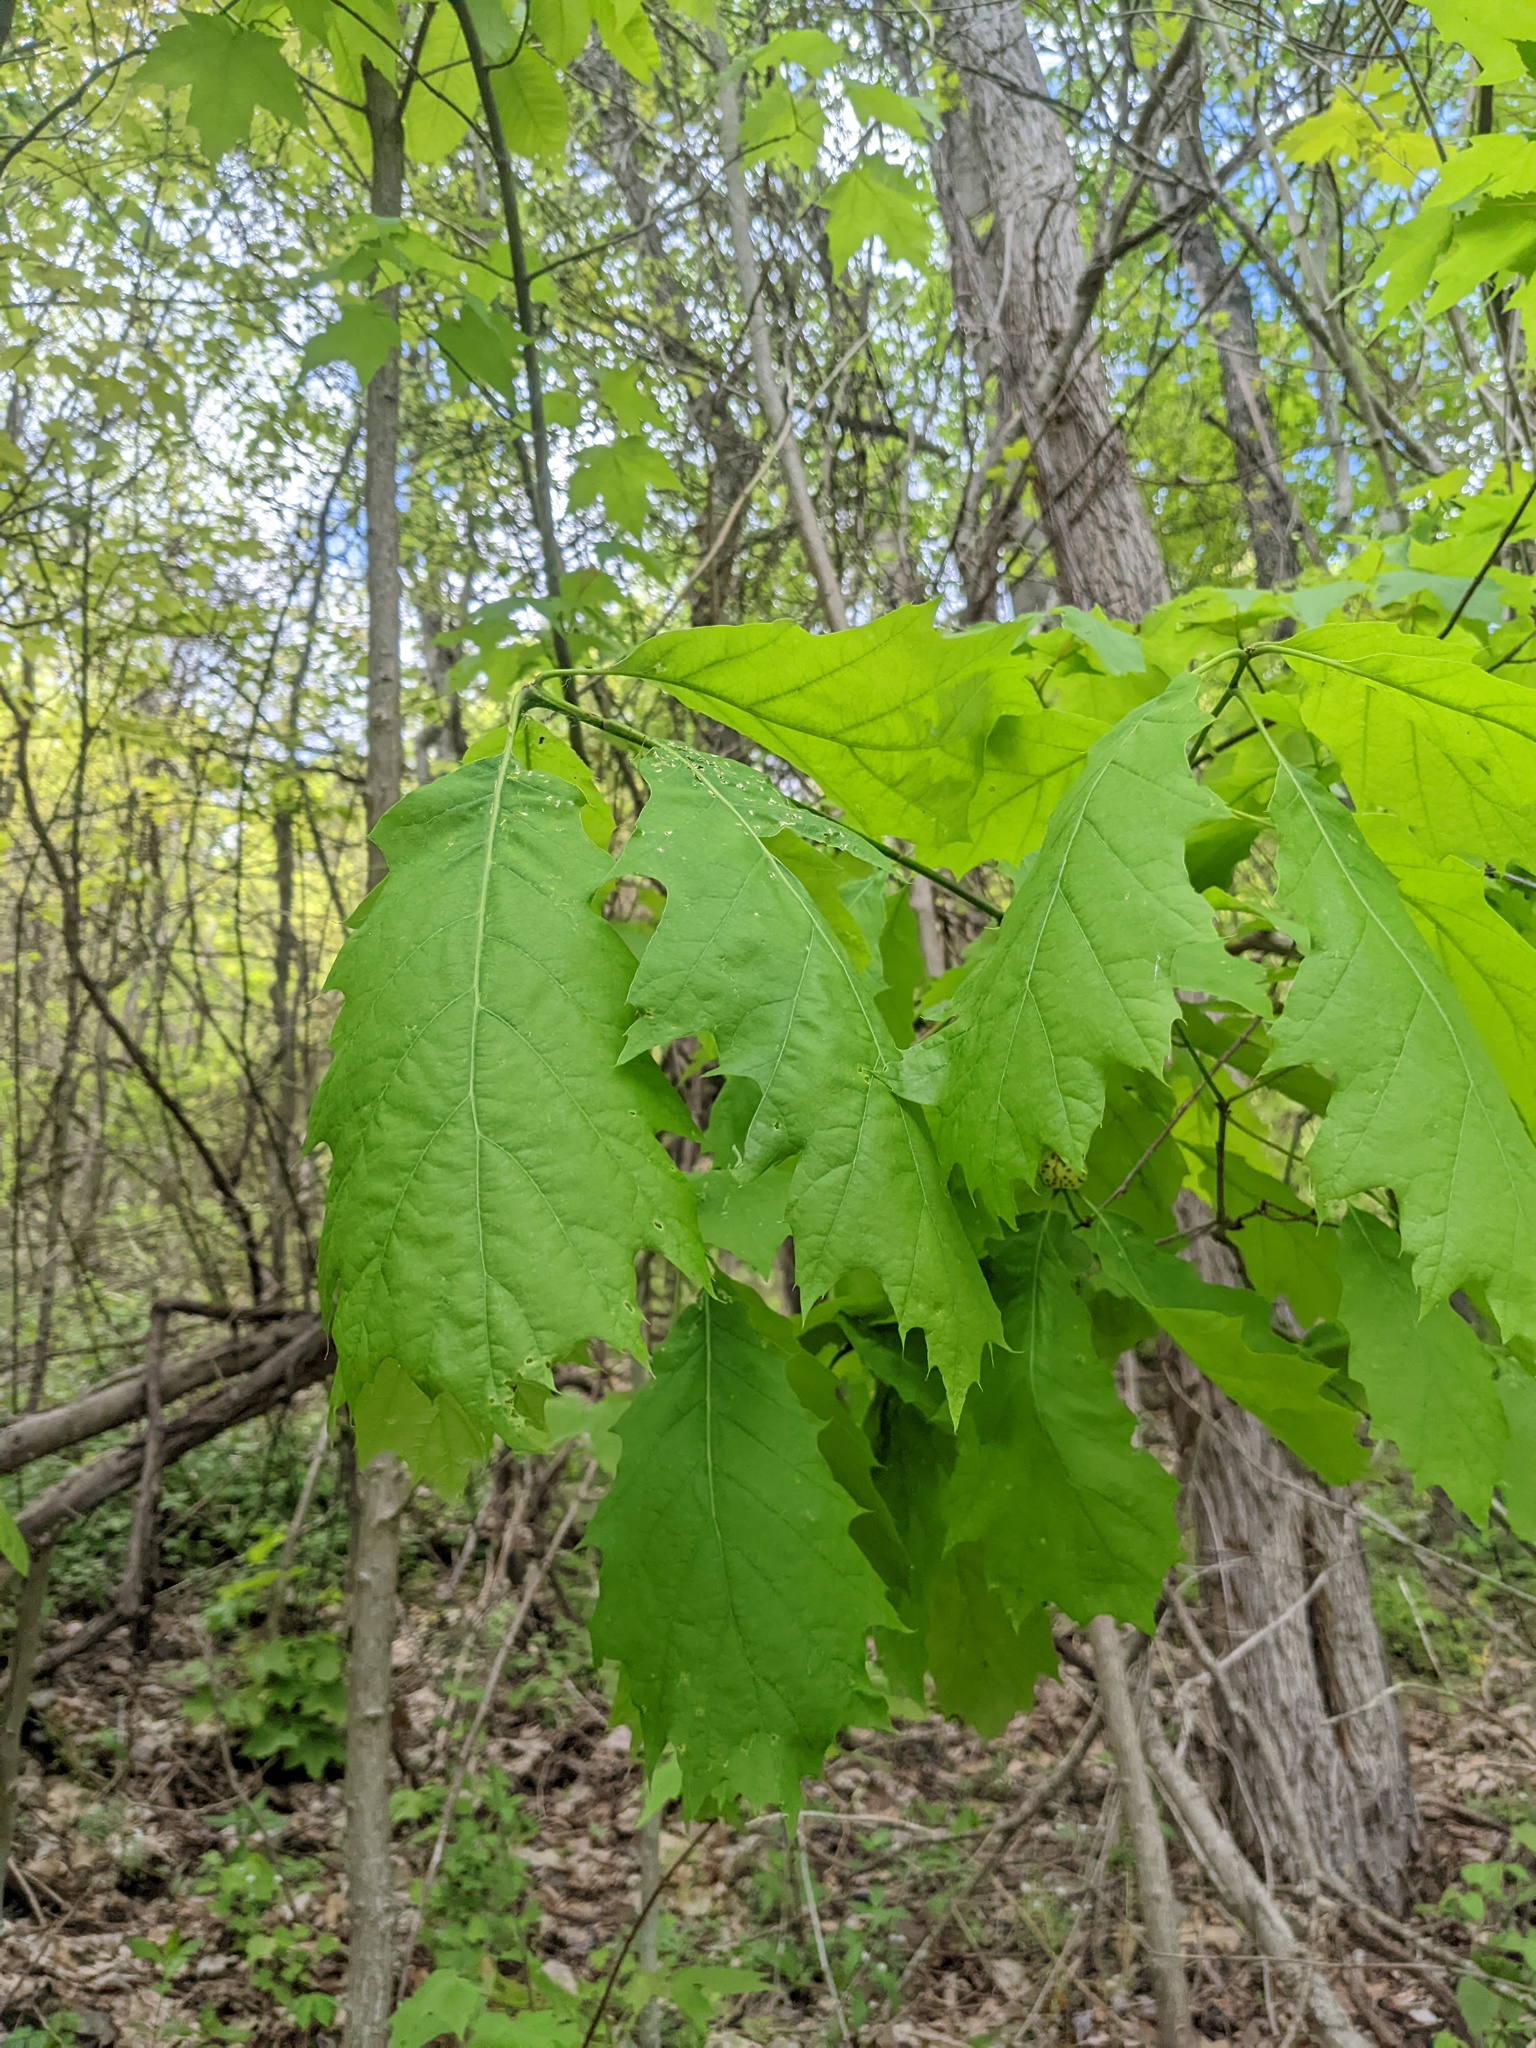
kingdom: Plantae
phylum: Tracheophyta
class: Magnoliopsida
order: Fagales
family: Fagaceae
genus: Quercus
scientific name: Quercus rubra
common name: Red oak
